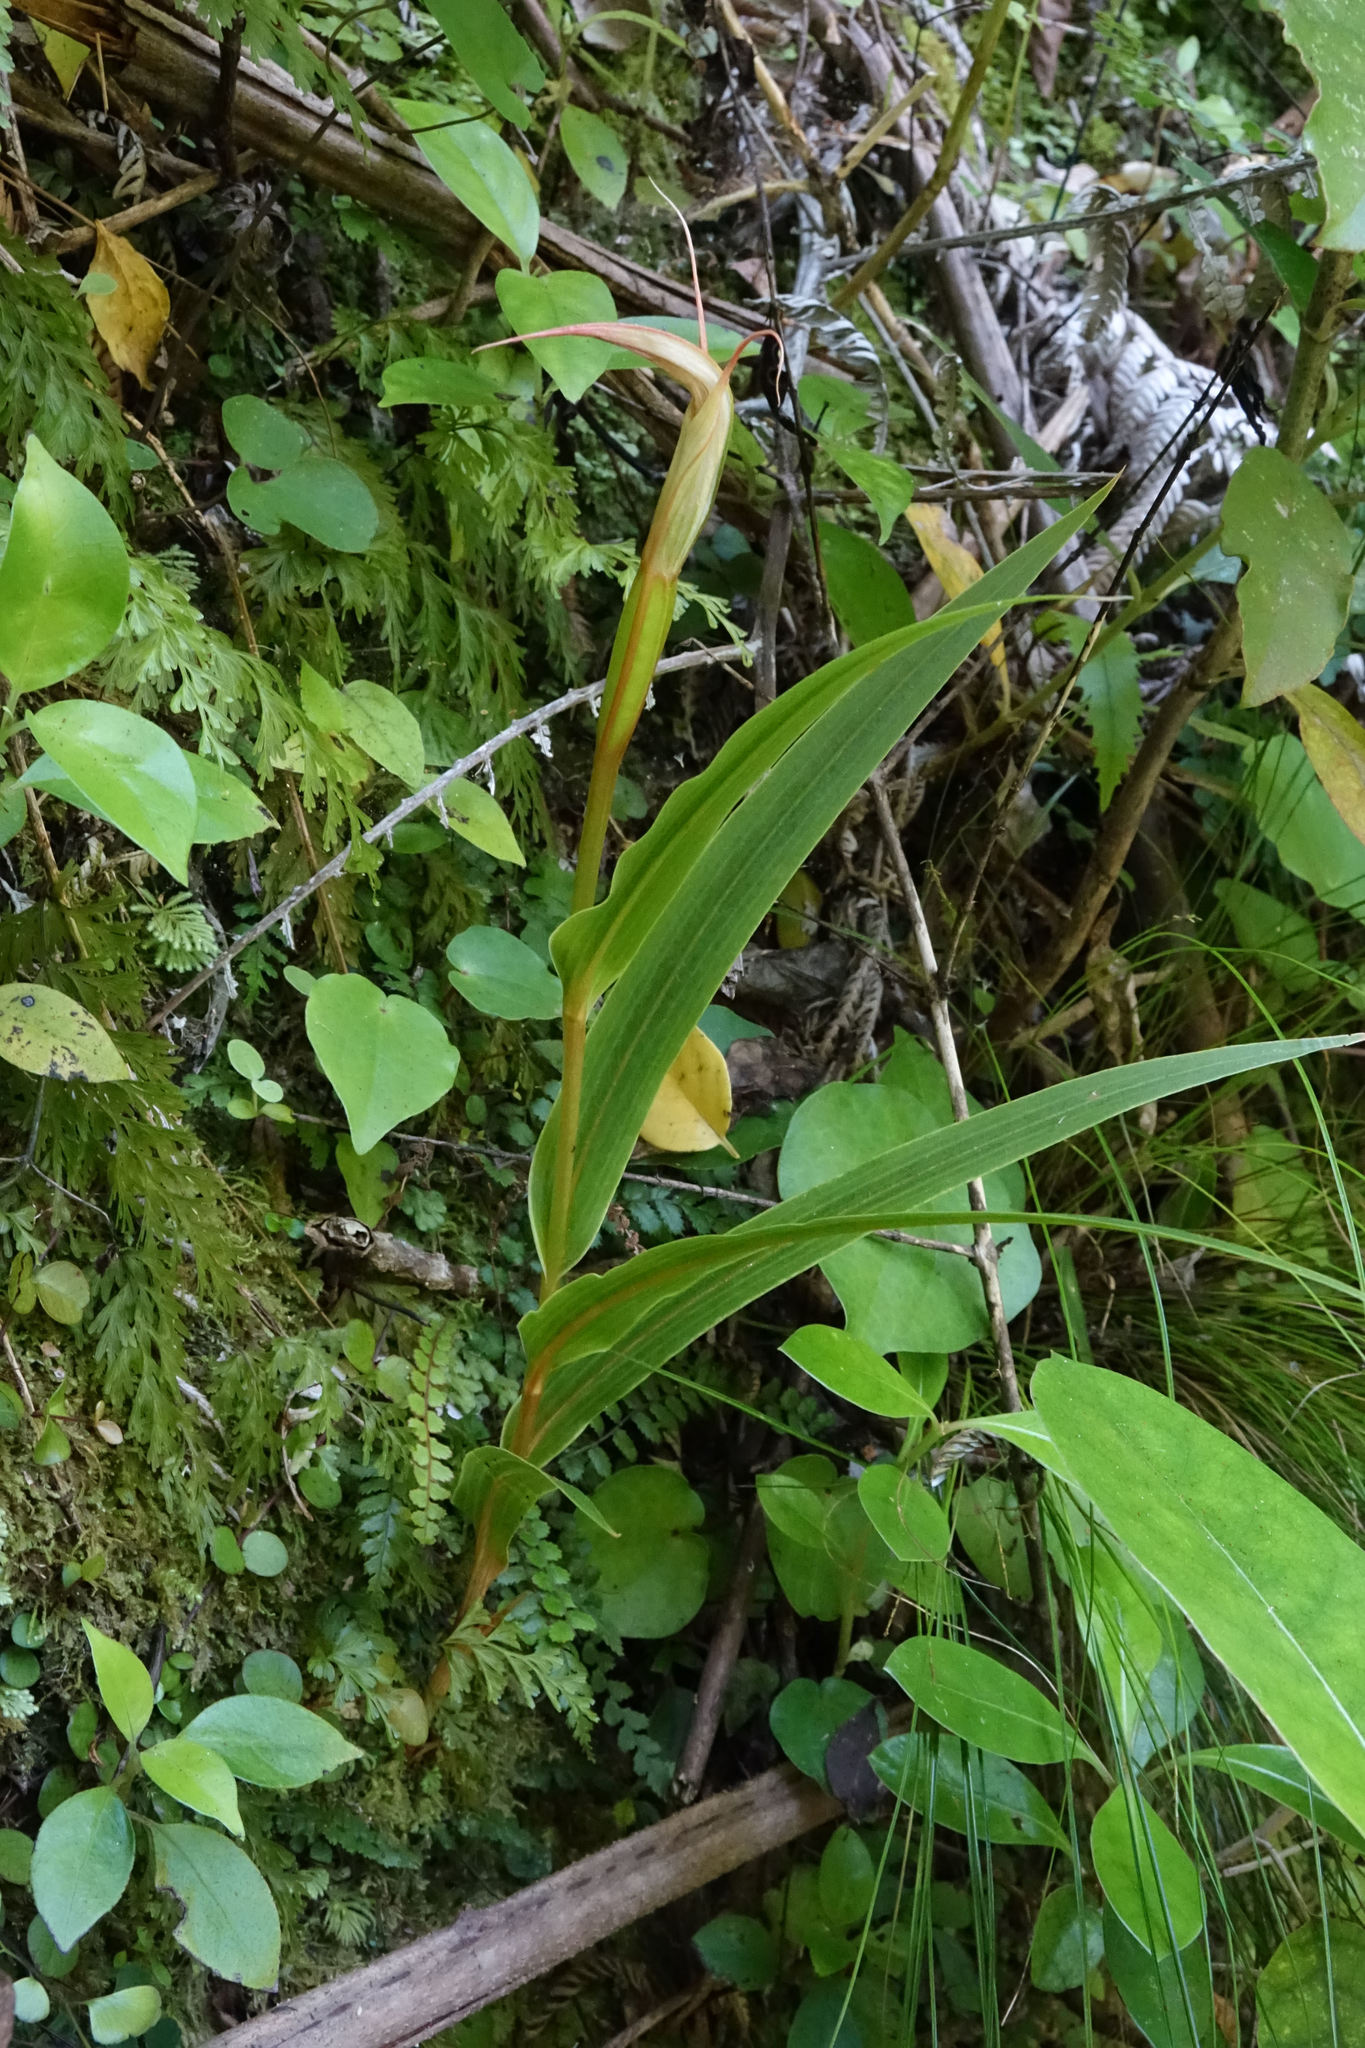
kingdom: Plantae
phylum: Tracheophyta
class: Liliopsida
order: Asparagales
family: Orchidaceae
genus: Pterostylis
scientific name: Pterostylis cardiostigma
